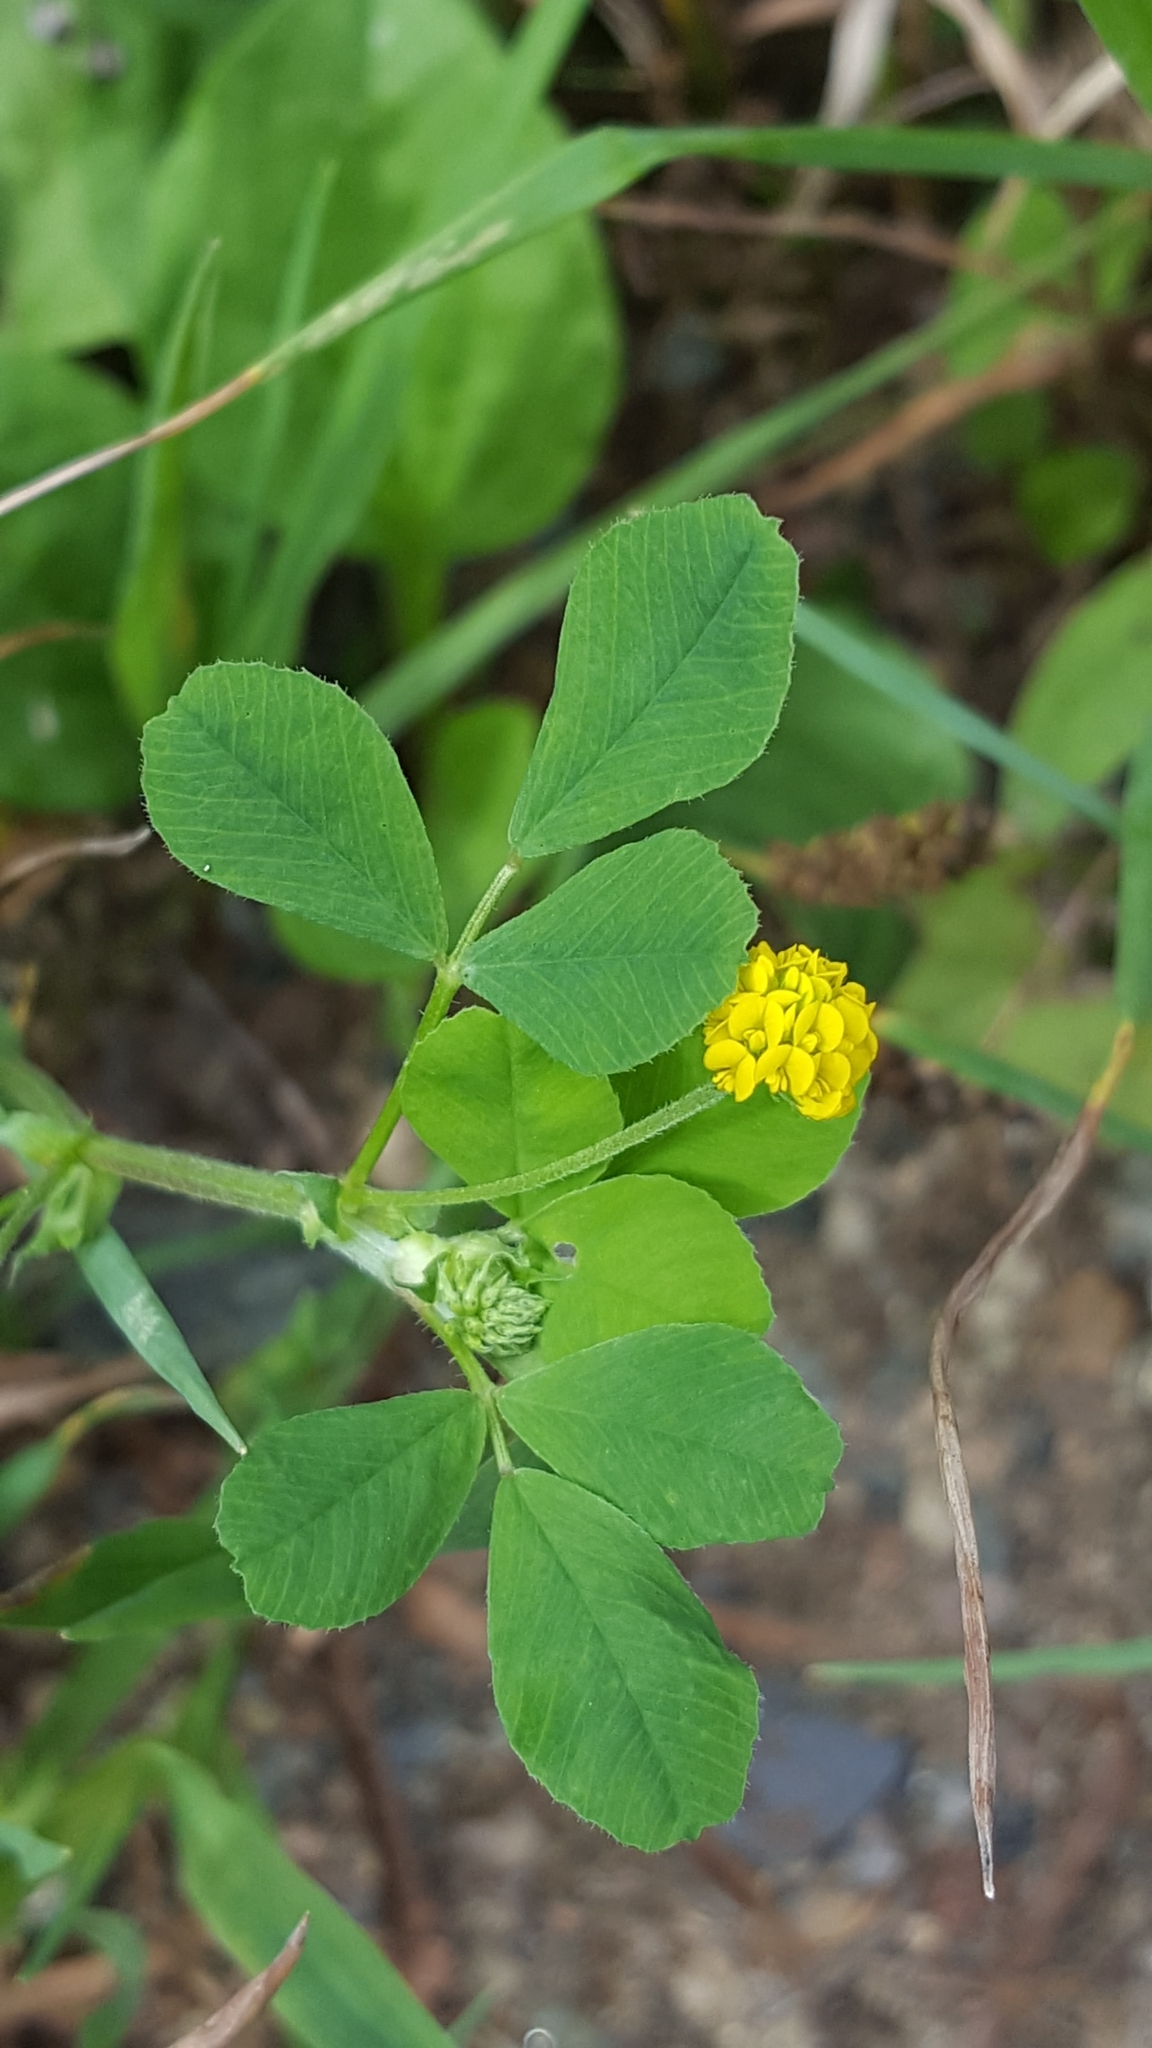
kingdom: Plantae
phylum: Tracheophyta
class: Magnoliopsida
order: Fabales
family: Fabaceae
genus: Medicago
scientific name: Medicago lupulina
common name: Black medick
